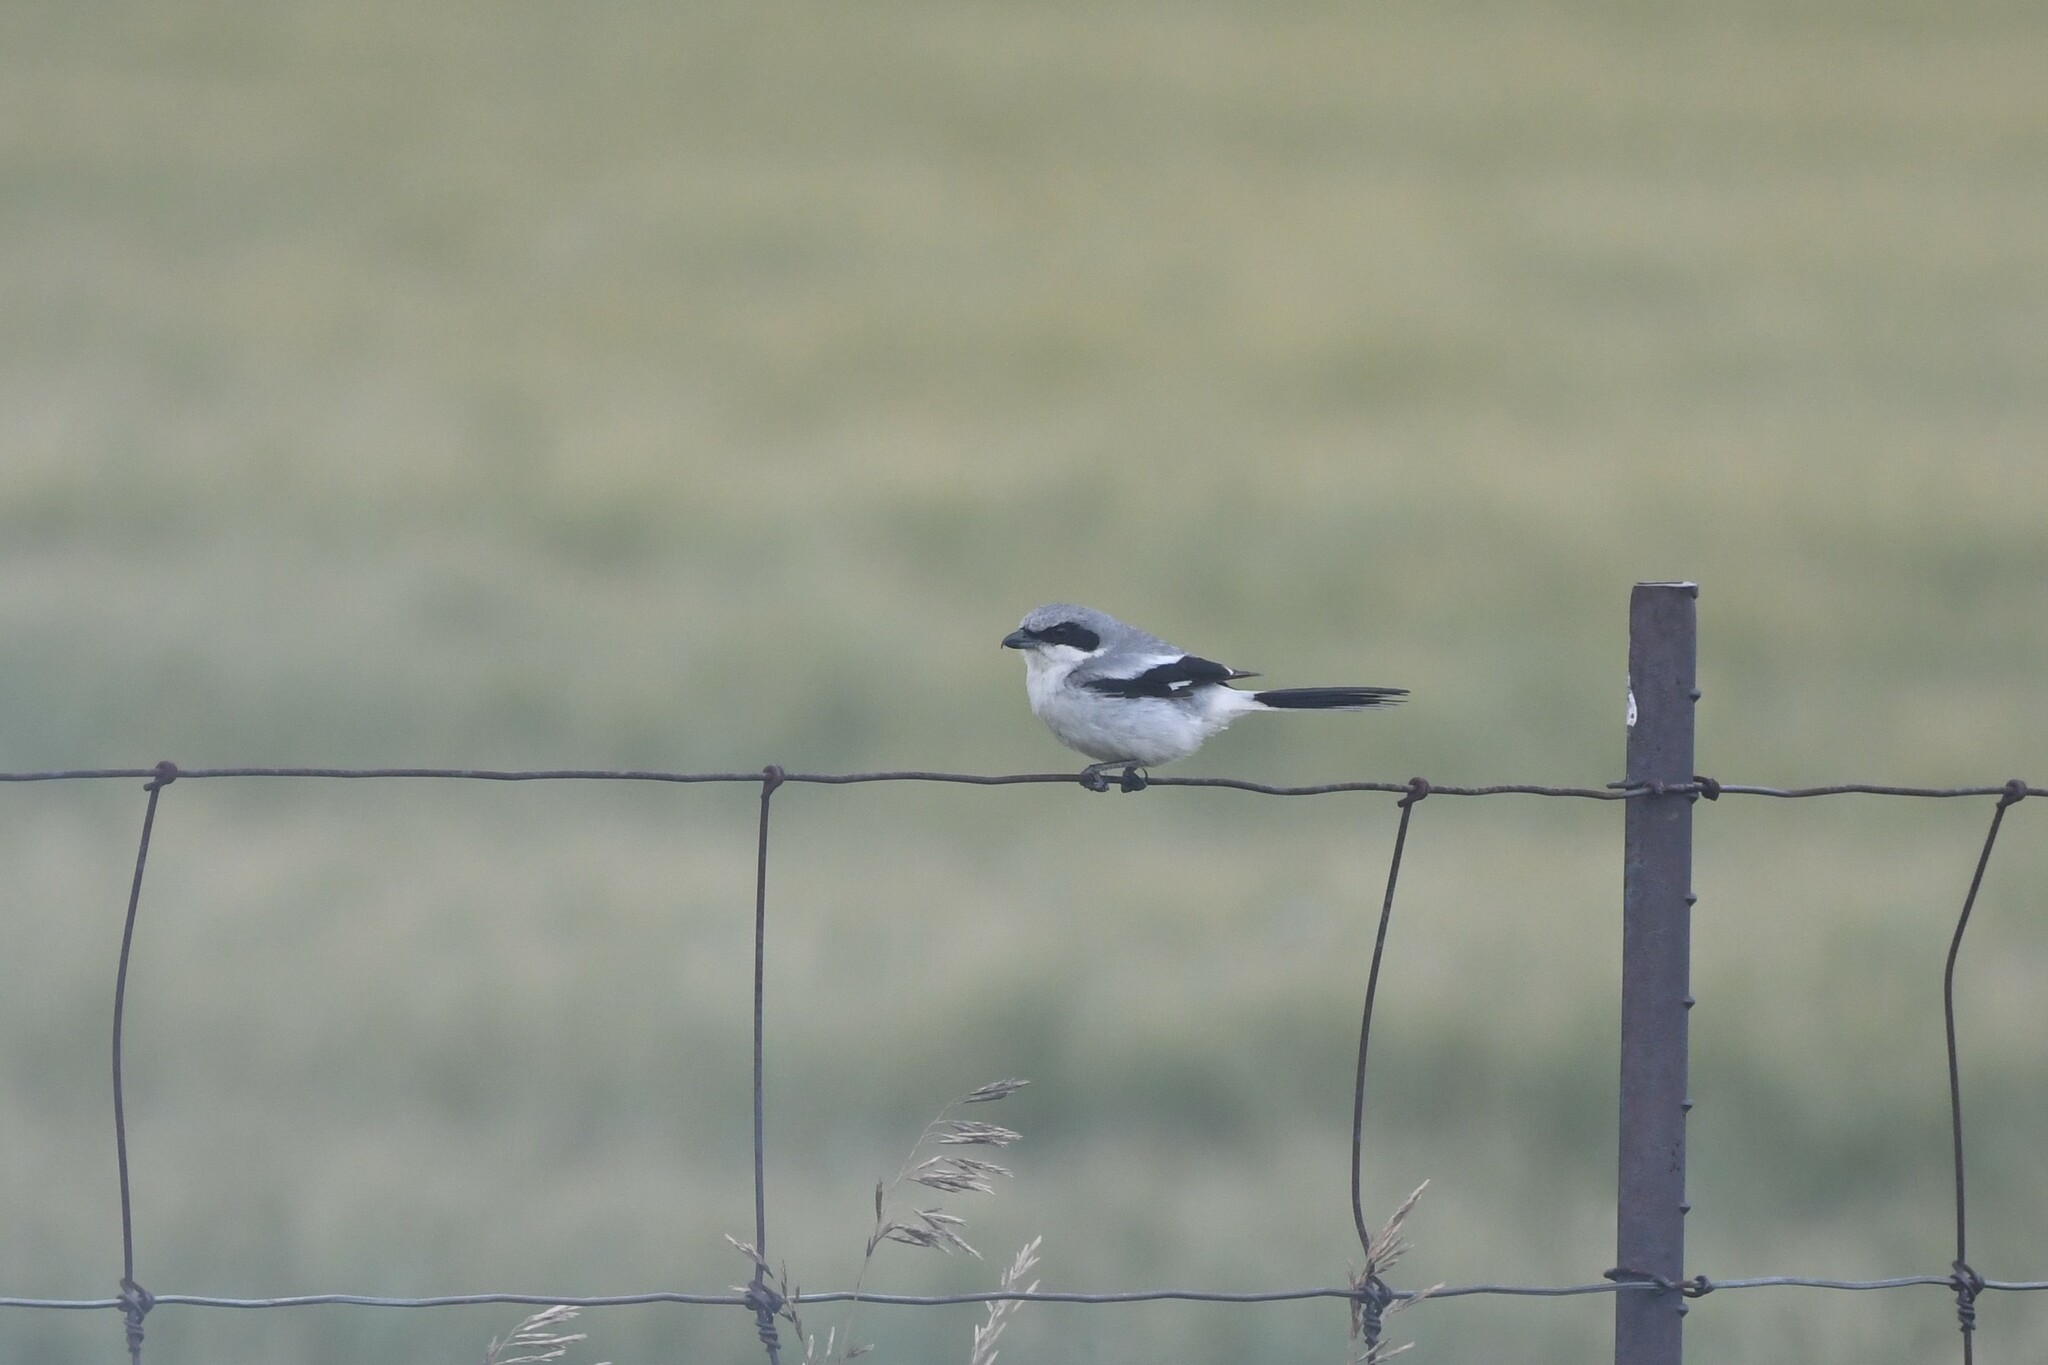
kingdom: Animalia
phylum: Chordata
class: Aves
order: Passeriformes
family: Laniidae
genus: Lanius
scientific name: Lanius ludovicianus
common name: Loggerhead shrike
